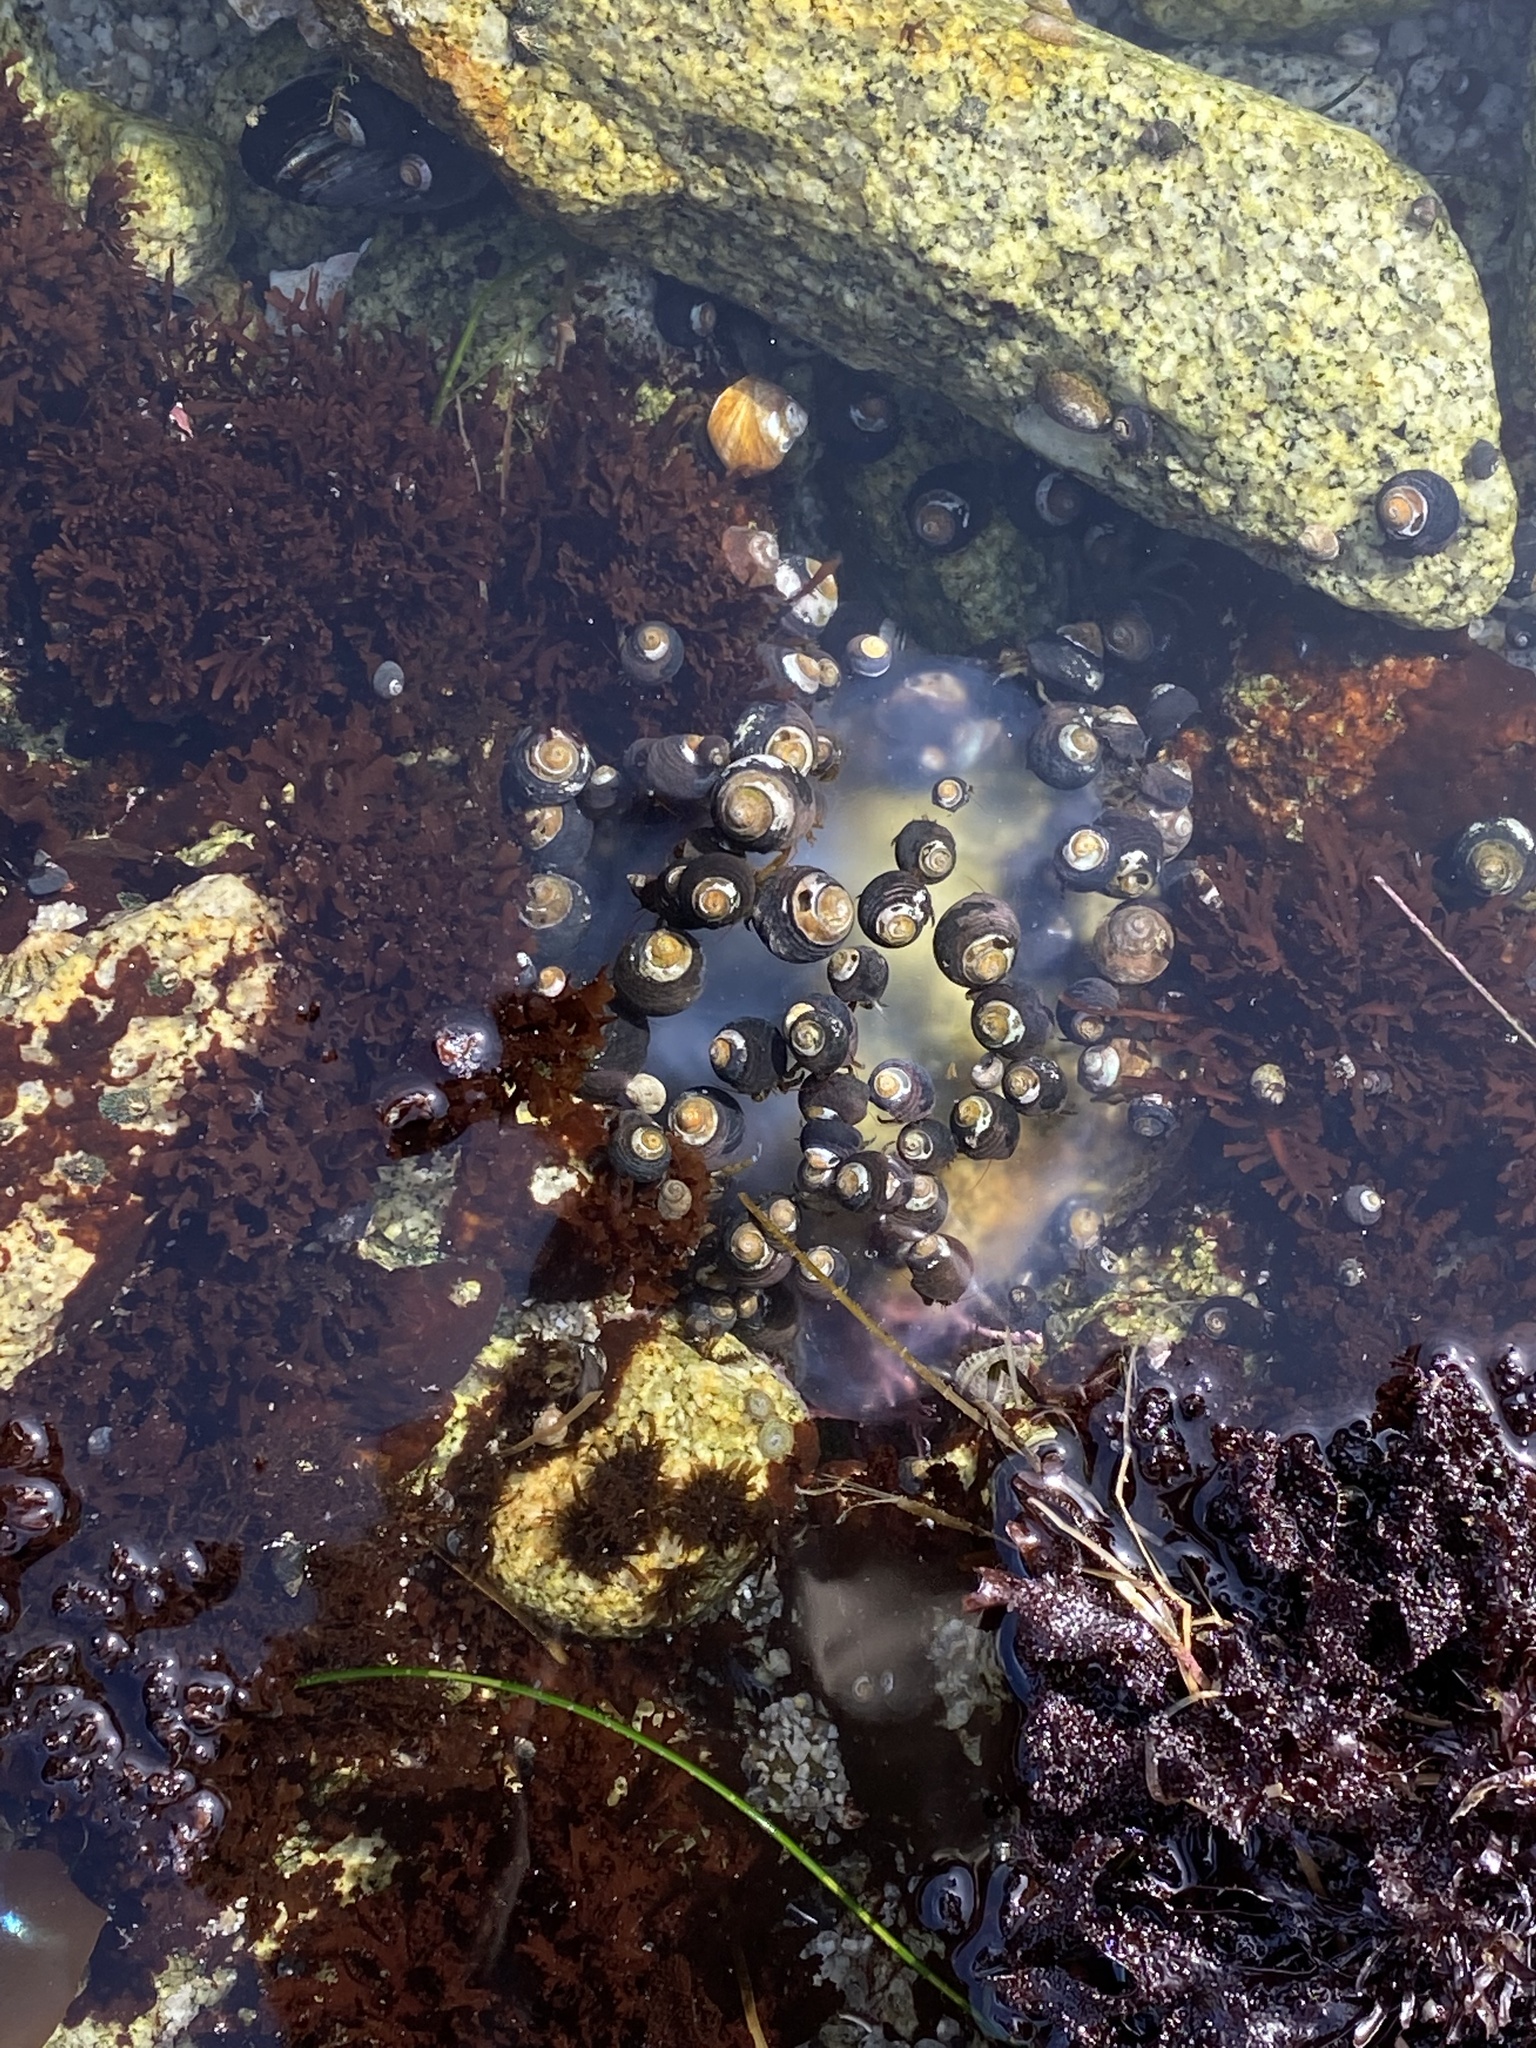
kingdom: Animalia
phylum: Mollusca
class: Gastropoda
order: Trochida
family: Tegulidae
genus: Tegula
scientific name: Tegula funebralis
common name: Black tegula
